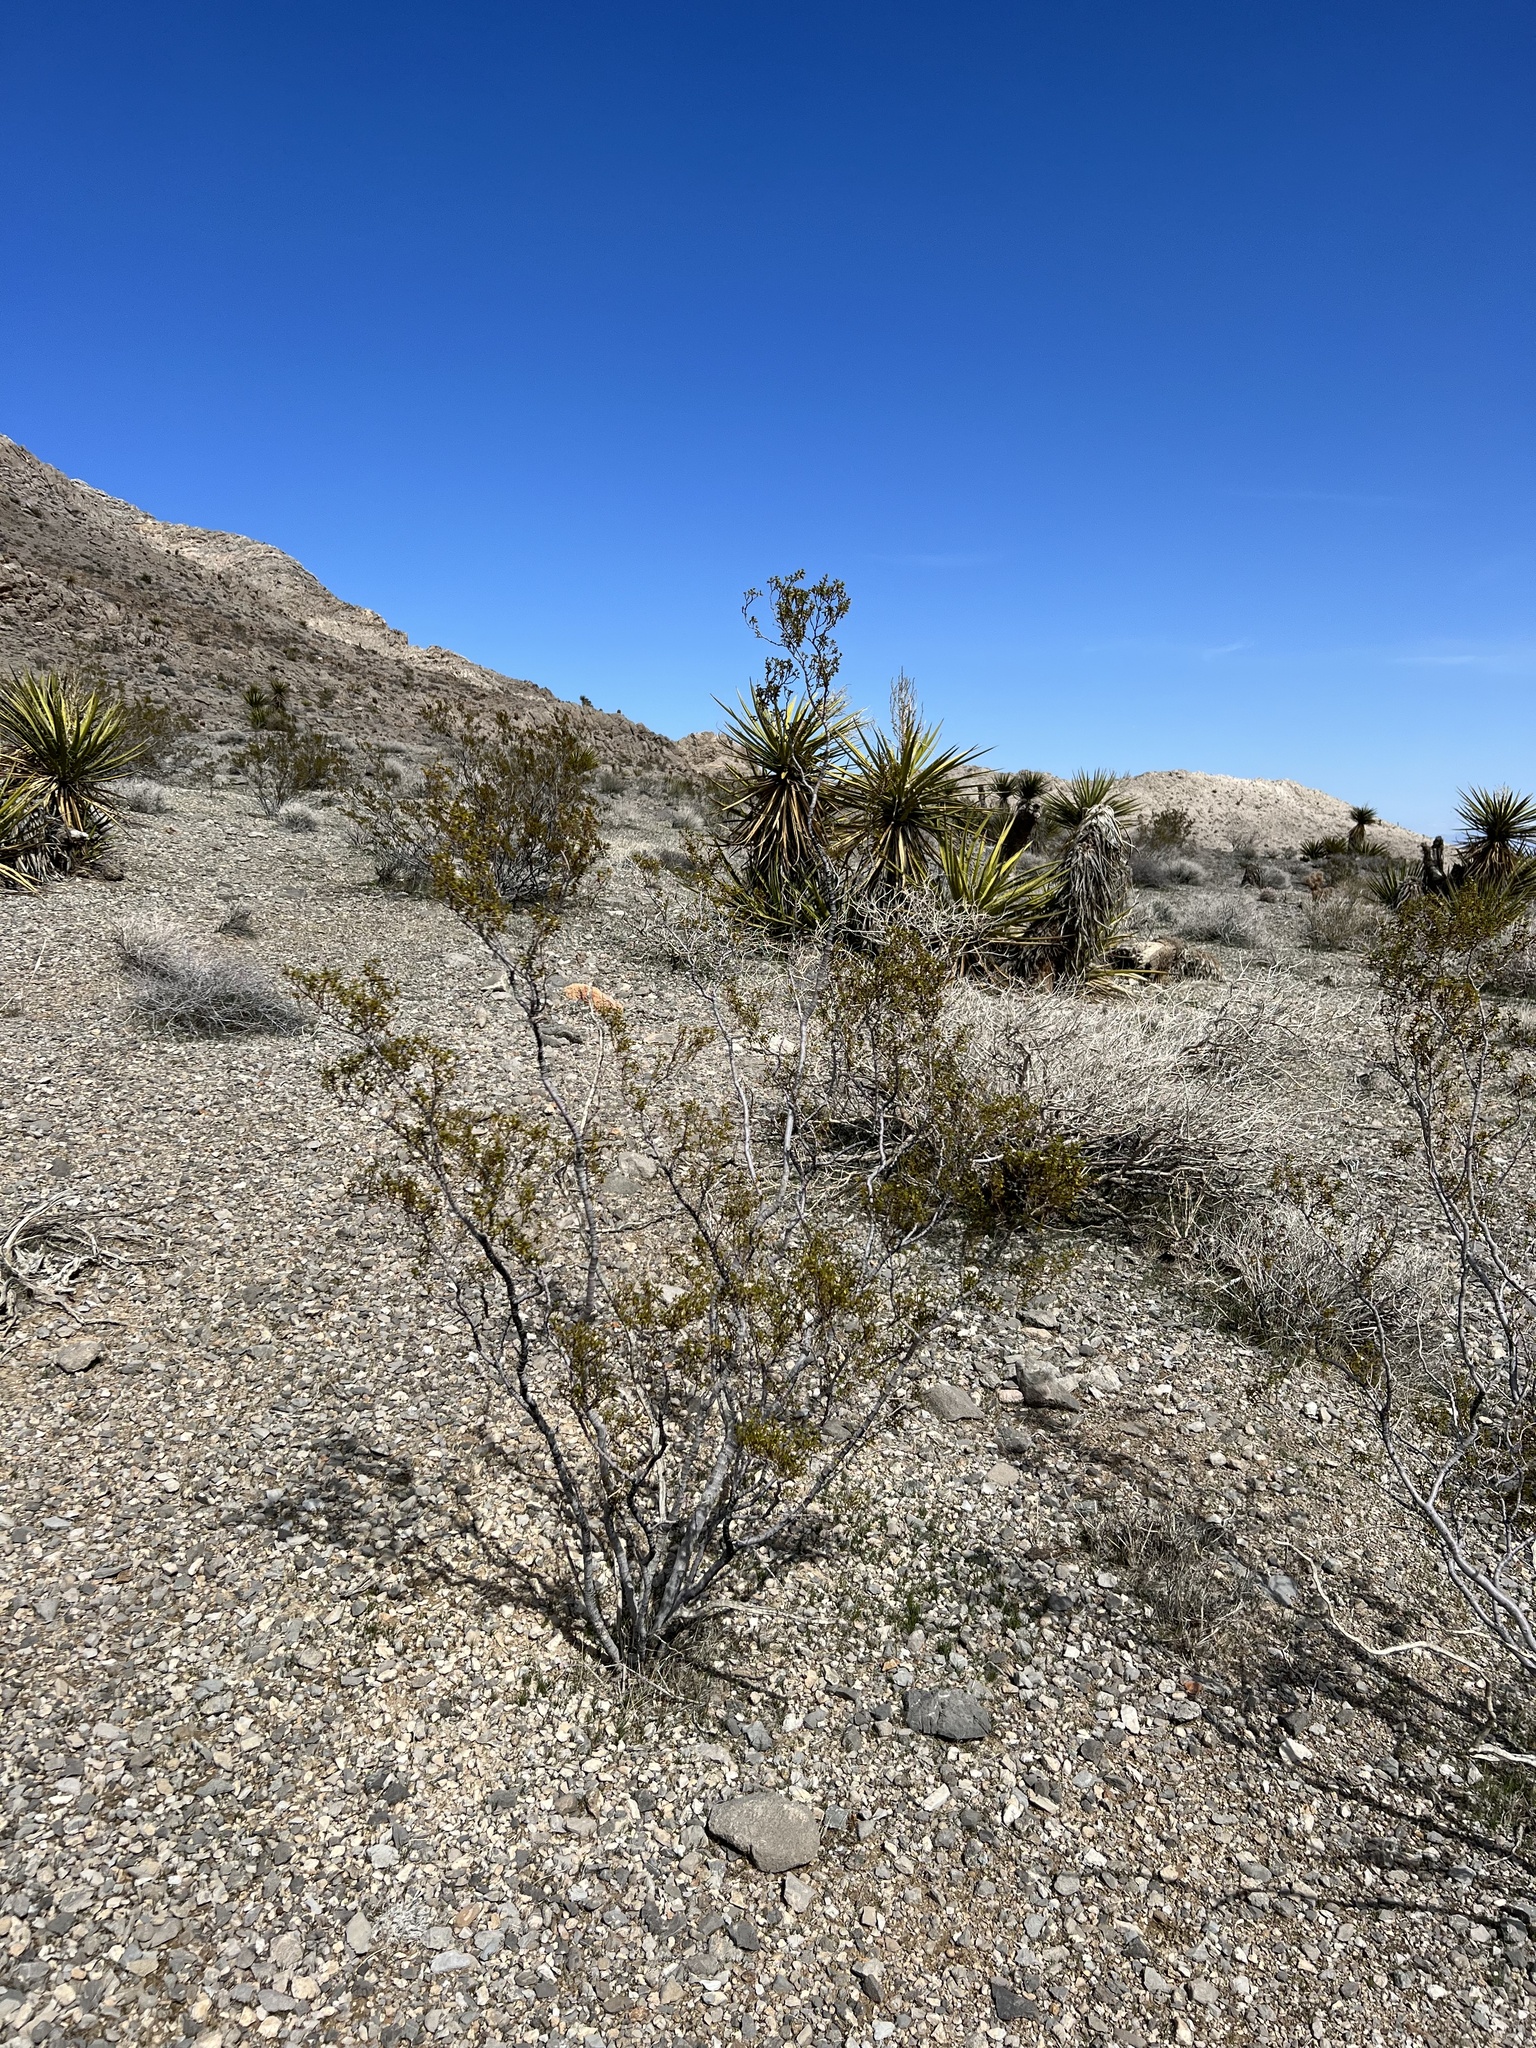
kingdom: Plantae
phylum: Tracheophyta
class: Magnoliopsida
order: Zygophyllales
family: Zygophyllaceae
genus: Larrea
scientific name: Larrea tridentata
